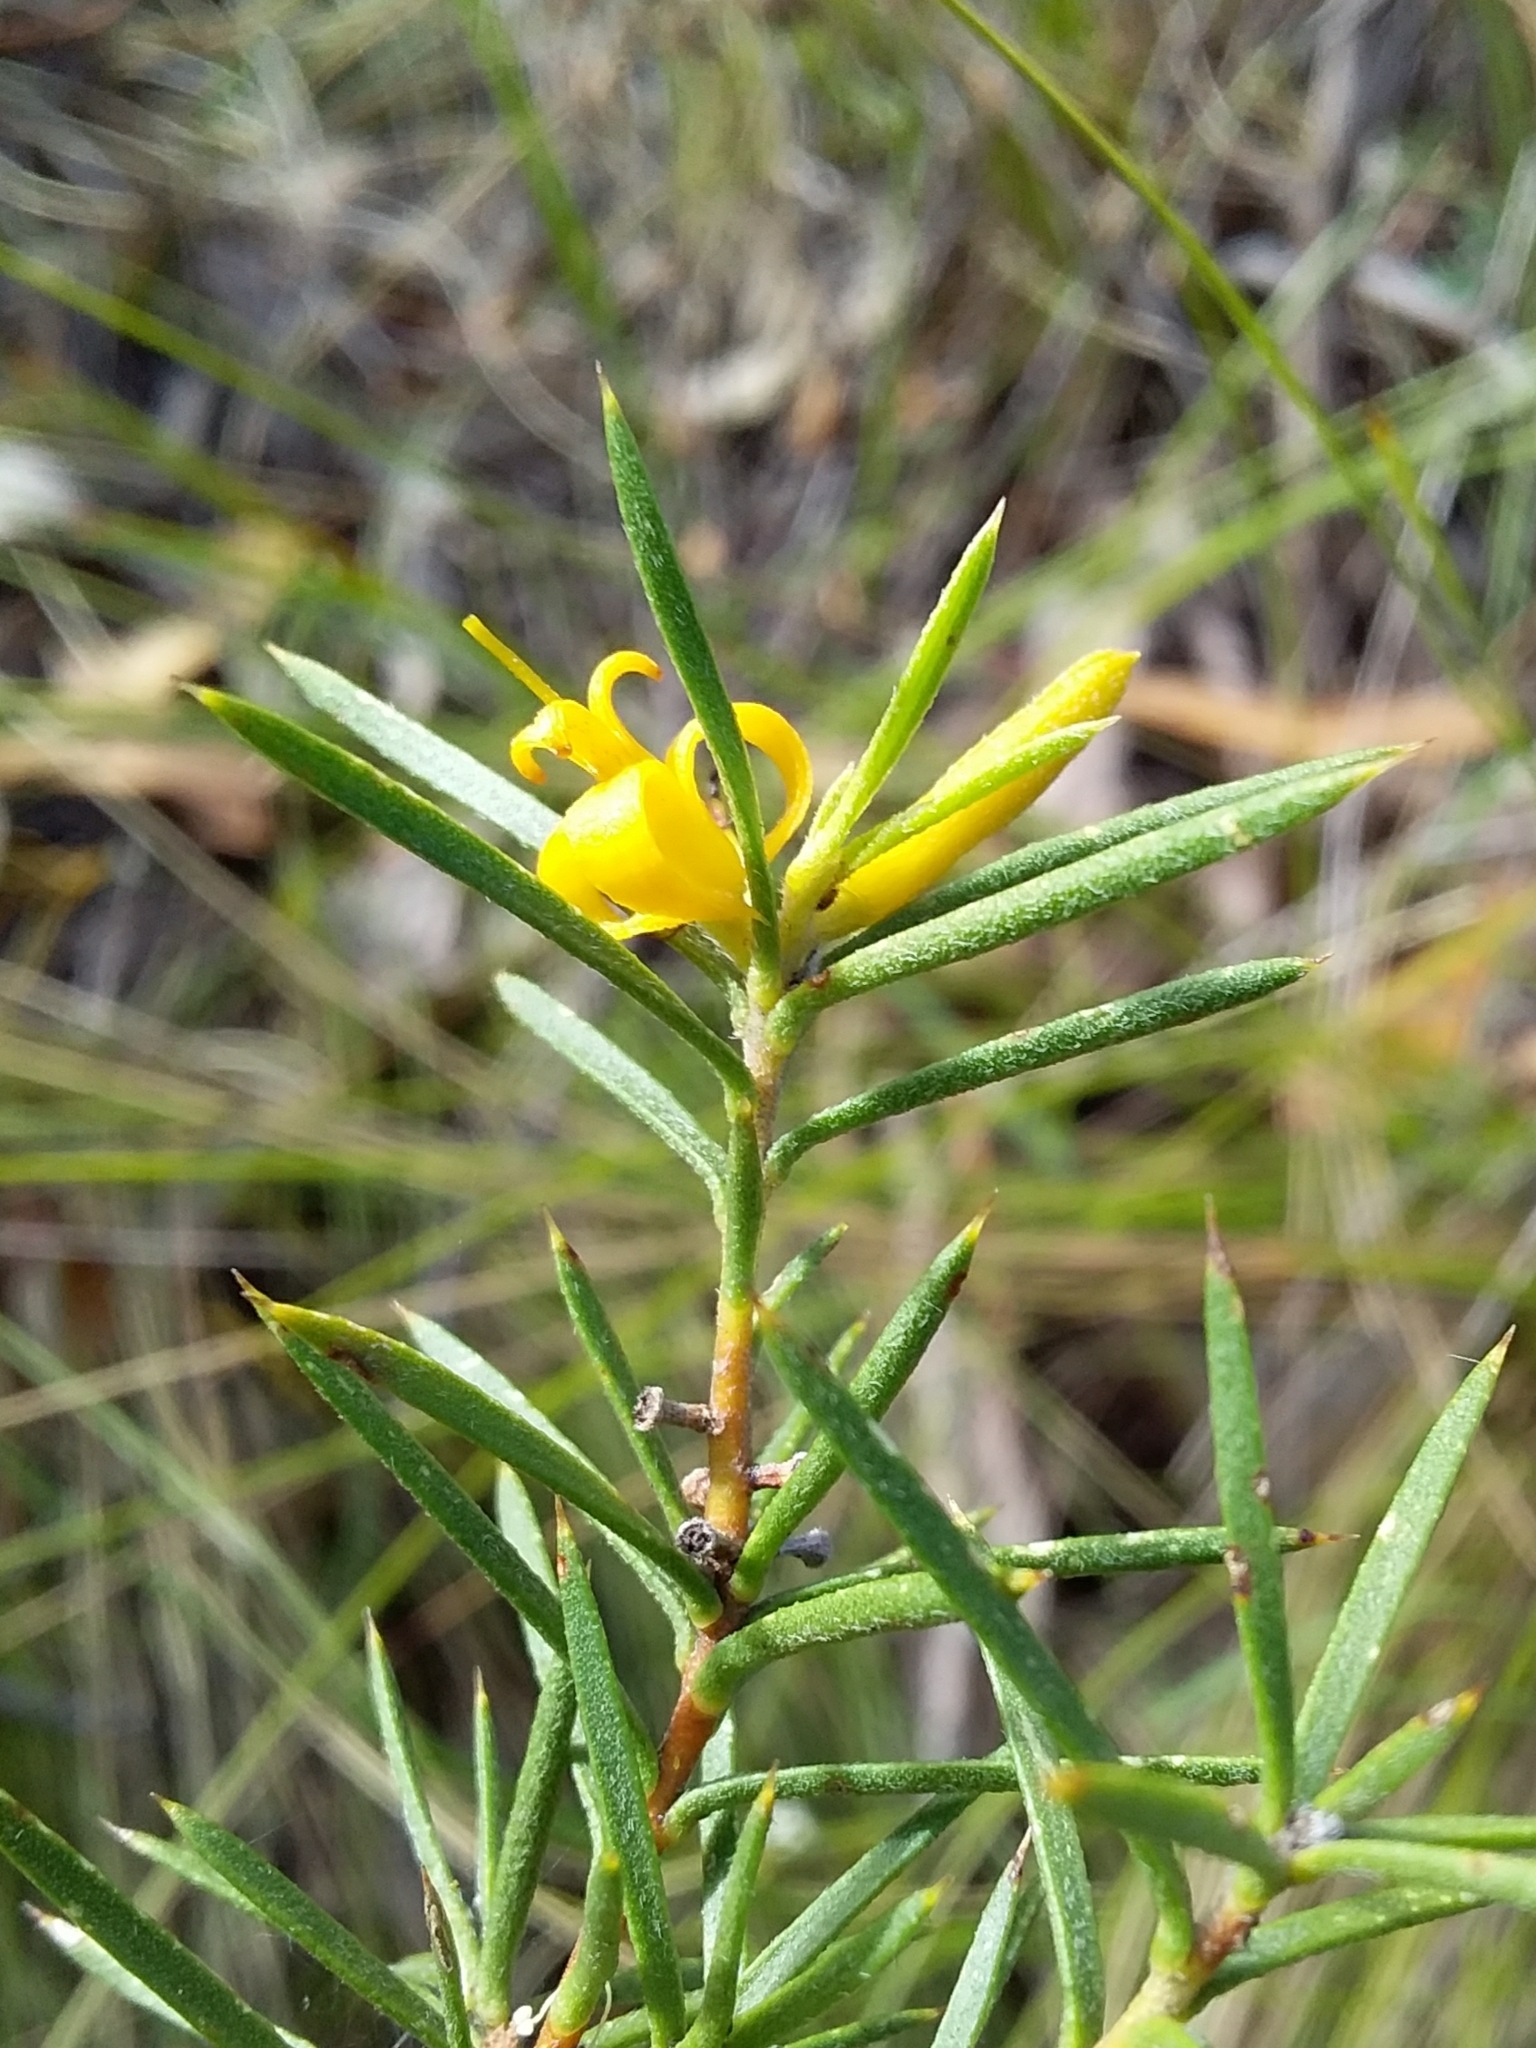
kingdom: Plantae
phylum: Tracheophyta
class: Magnoliopsida
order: Proteales
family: Proteaceae
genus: Persoonia
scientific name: Persoonia juniperina
